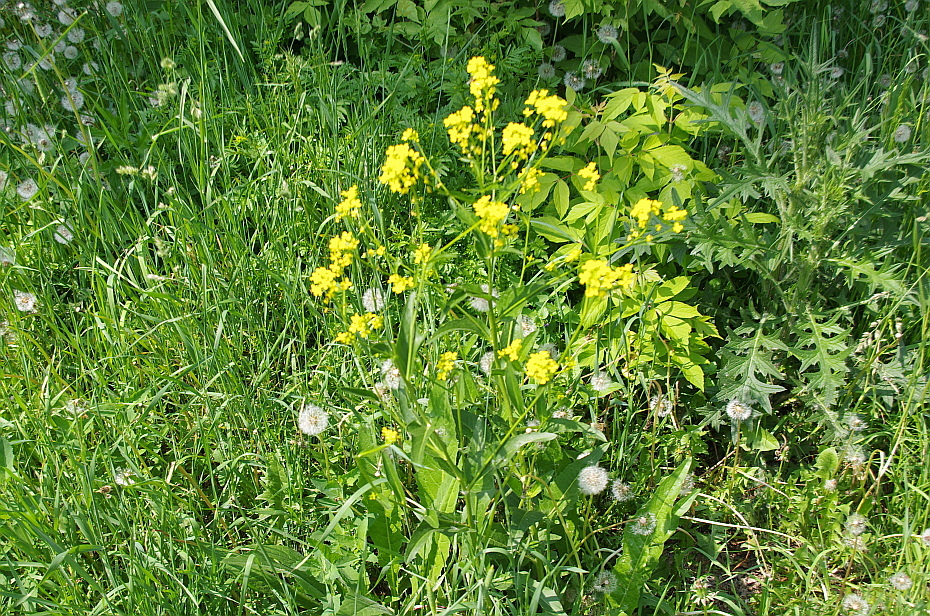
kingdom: Plantae
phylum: Tracheophyta
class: Magnoliopsida
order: Brassicales
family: Brassicaceae
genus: Barbarea
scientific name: Barbarea vulgaris
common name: Cressy-greens
